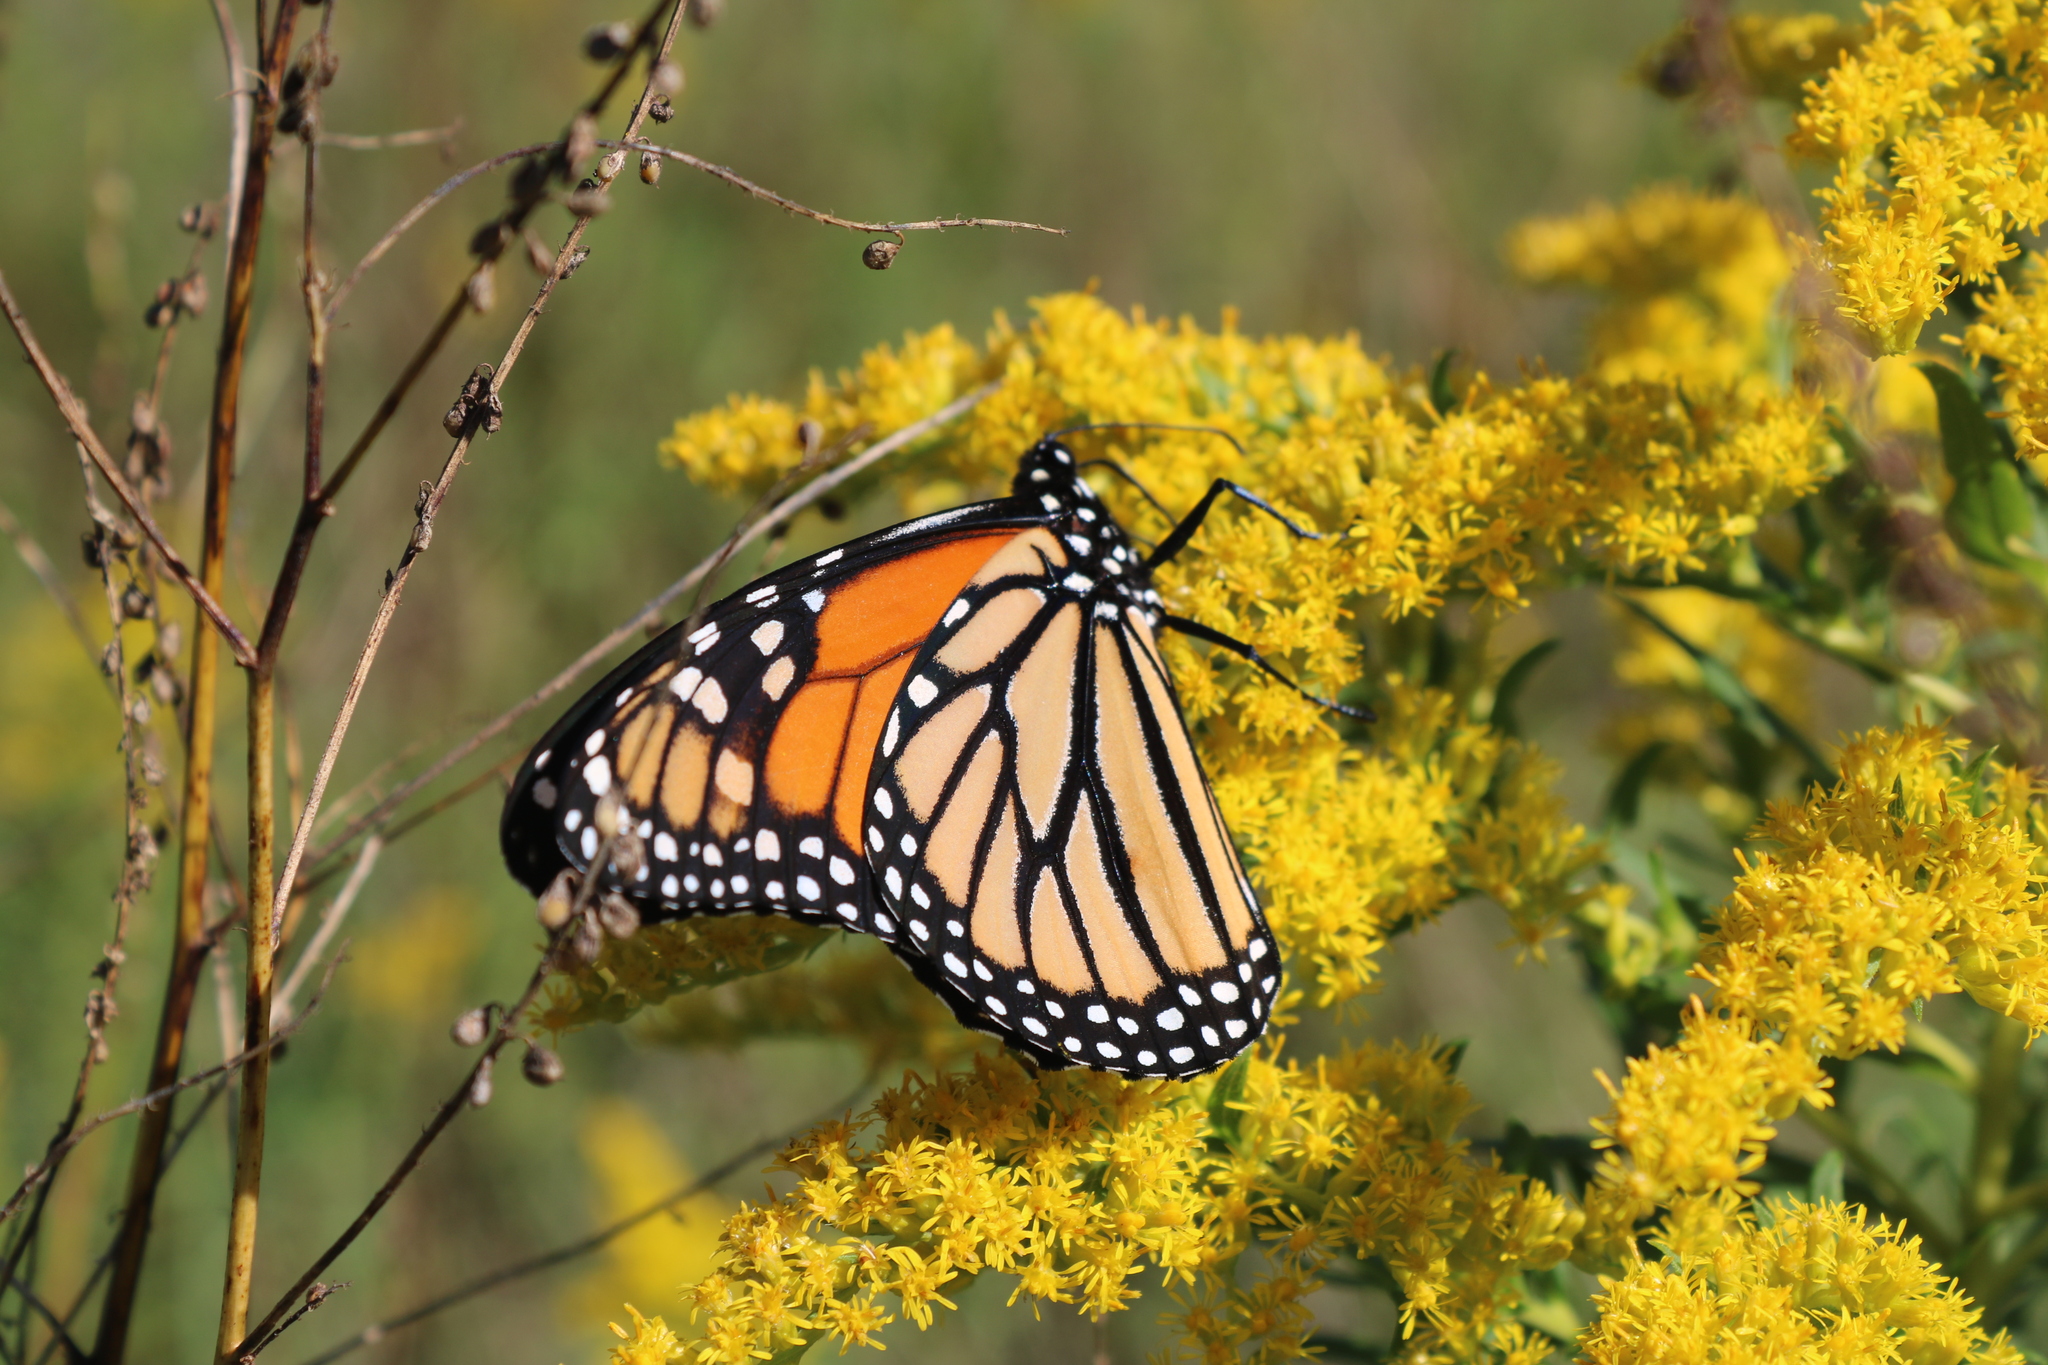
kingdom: Animalia
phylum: Arthropoda
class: Insecta
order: Lepidoptera
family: Nymphalidae
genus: Danaus
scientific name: Danaus plexippus
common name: Monarch
